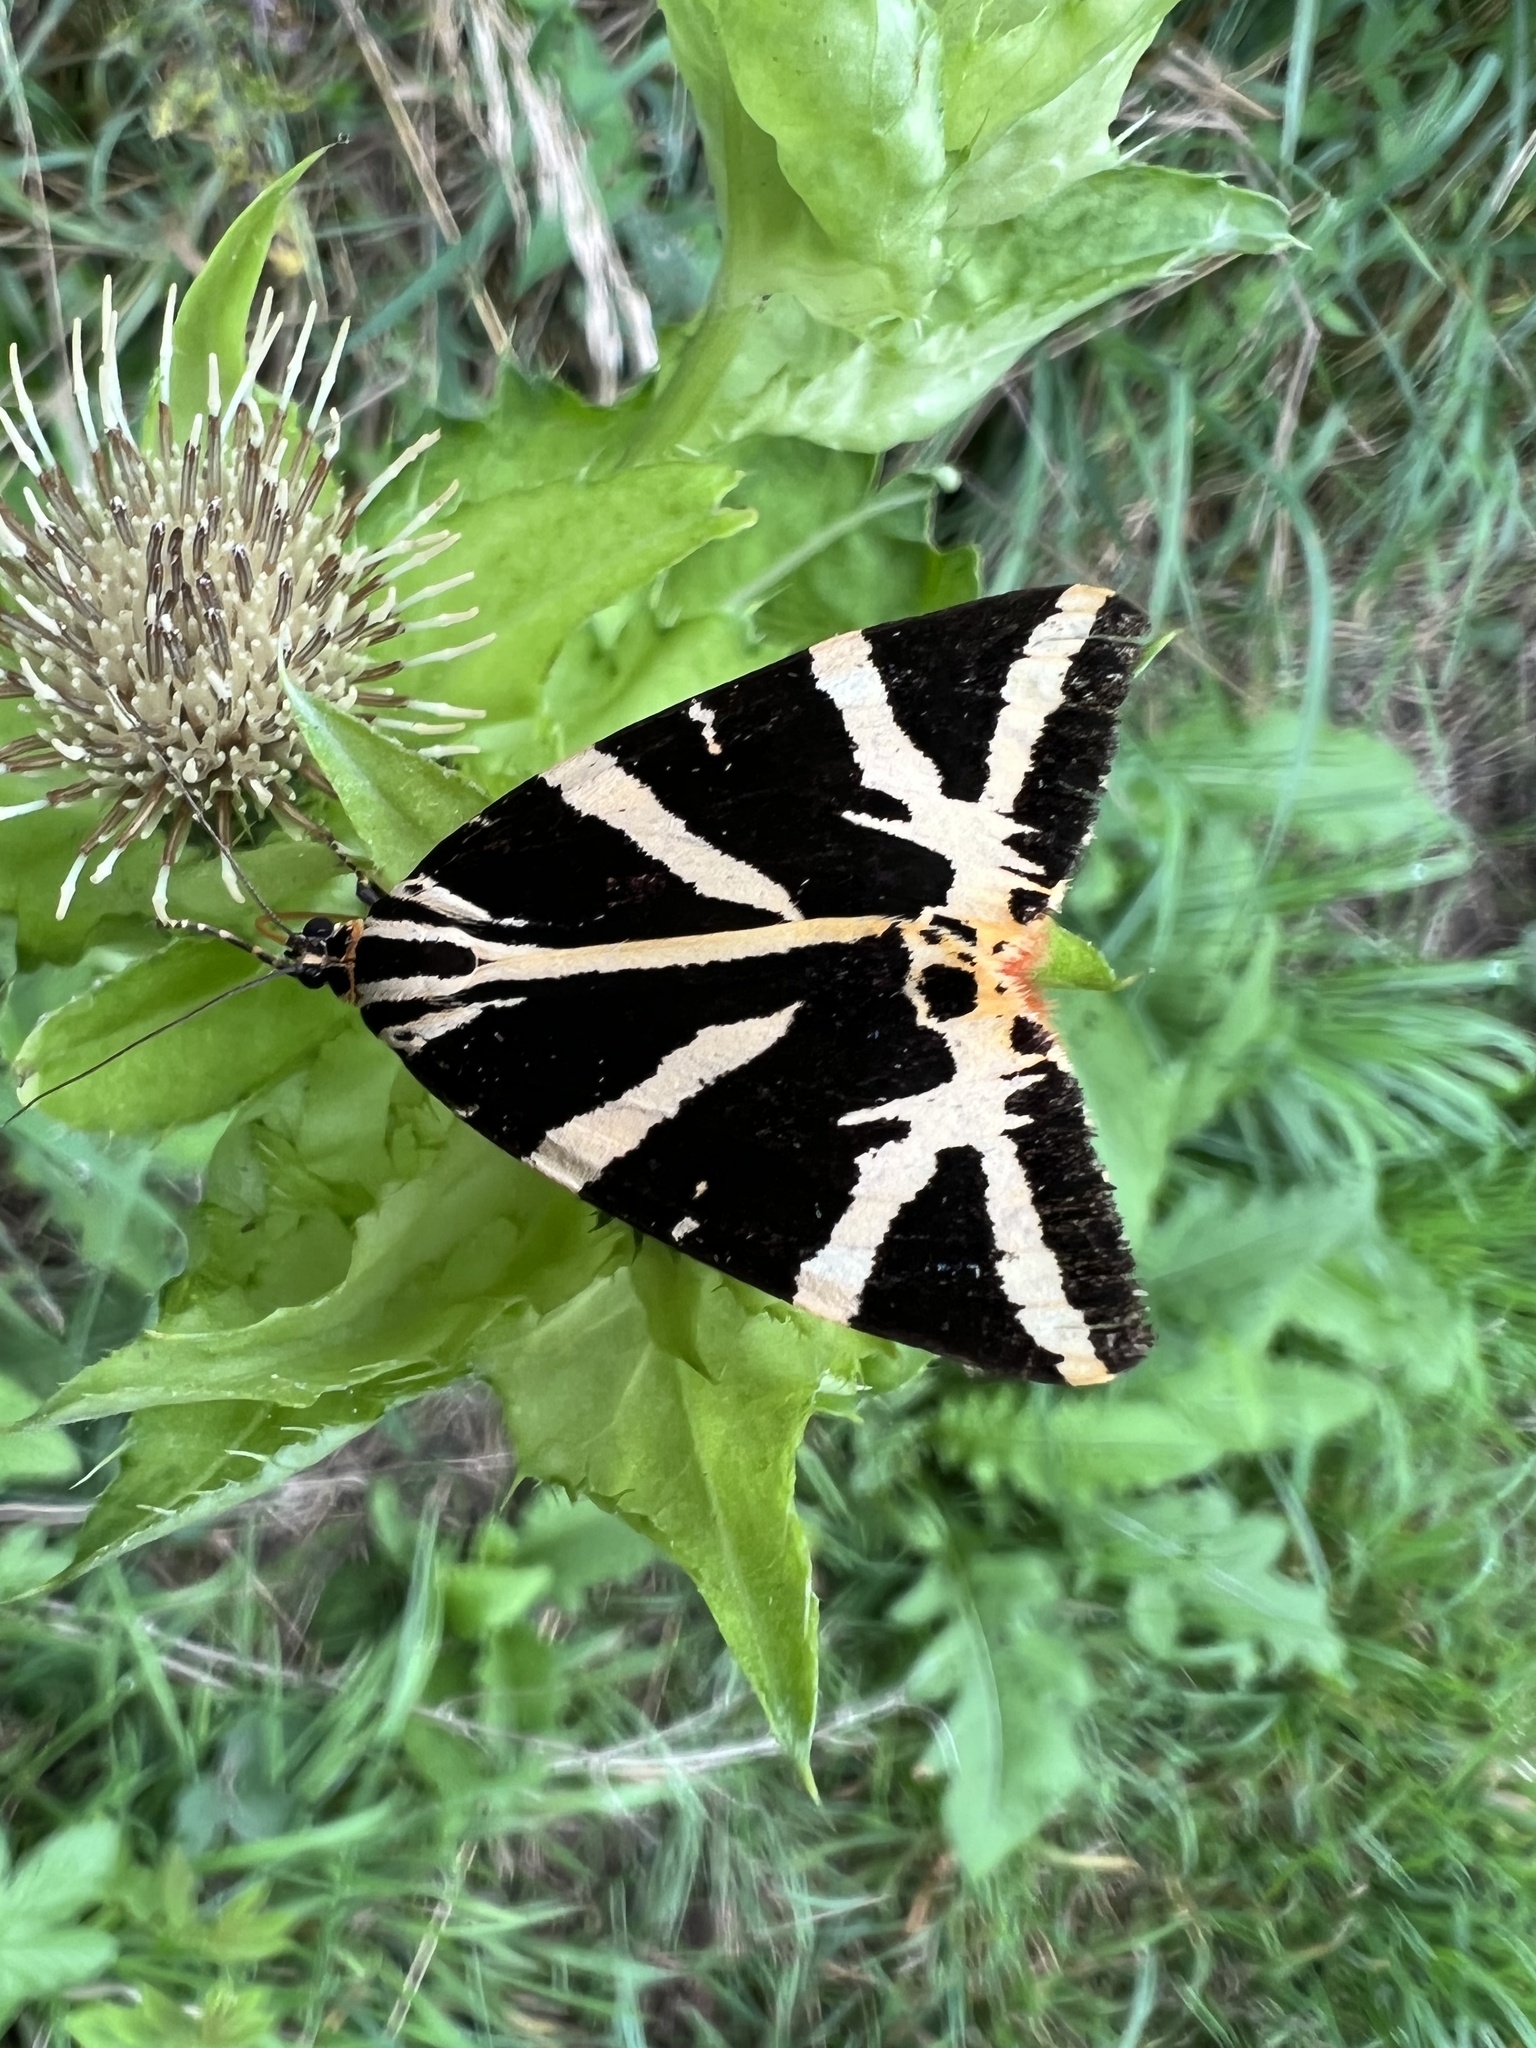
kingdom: Animalia
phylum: Arthropoda
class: Insecta
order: Lepidoptera
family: Erebidae
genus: Euplagia
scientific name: Euplagia quadripunctaria
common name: Jersey tiger
